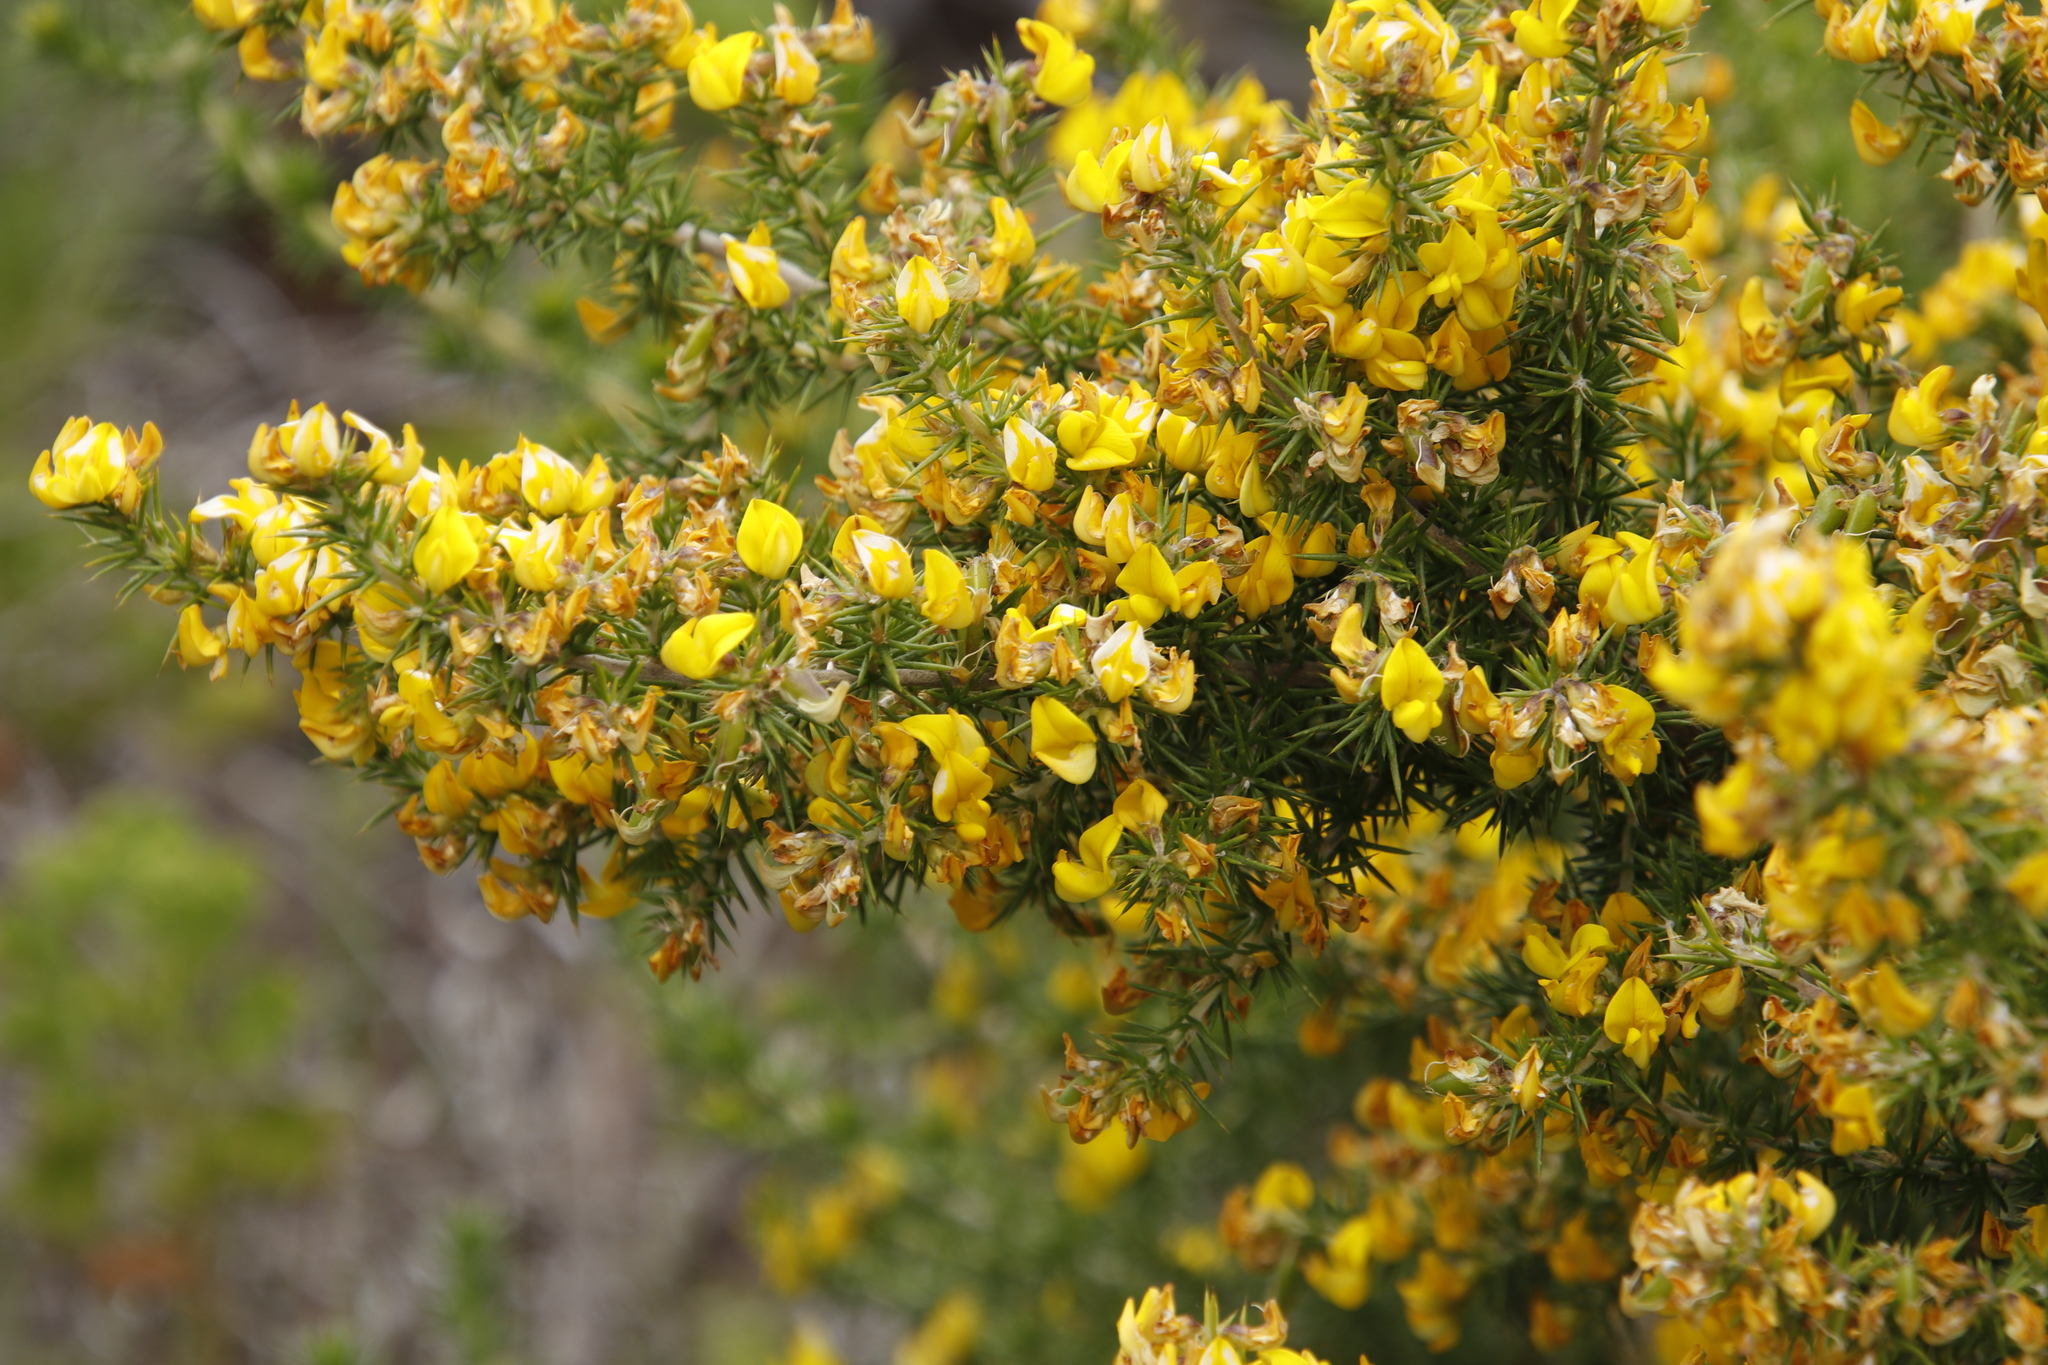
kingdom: Plantae
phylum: Tracheophyta
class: Magnoliopsida
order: Fabales
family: Fabaceae
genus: Aspalathus
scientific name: Aspalathus astroites
